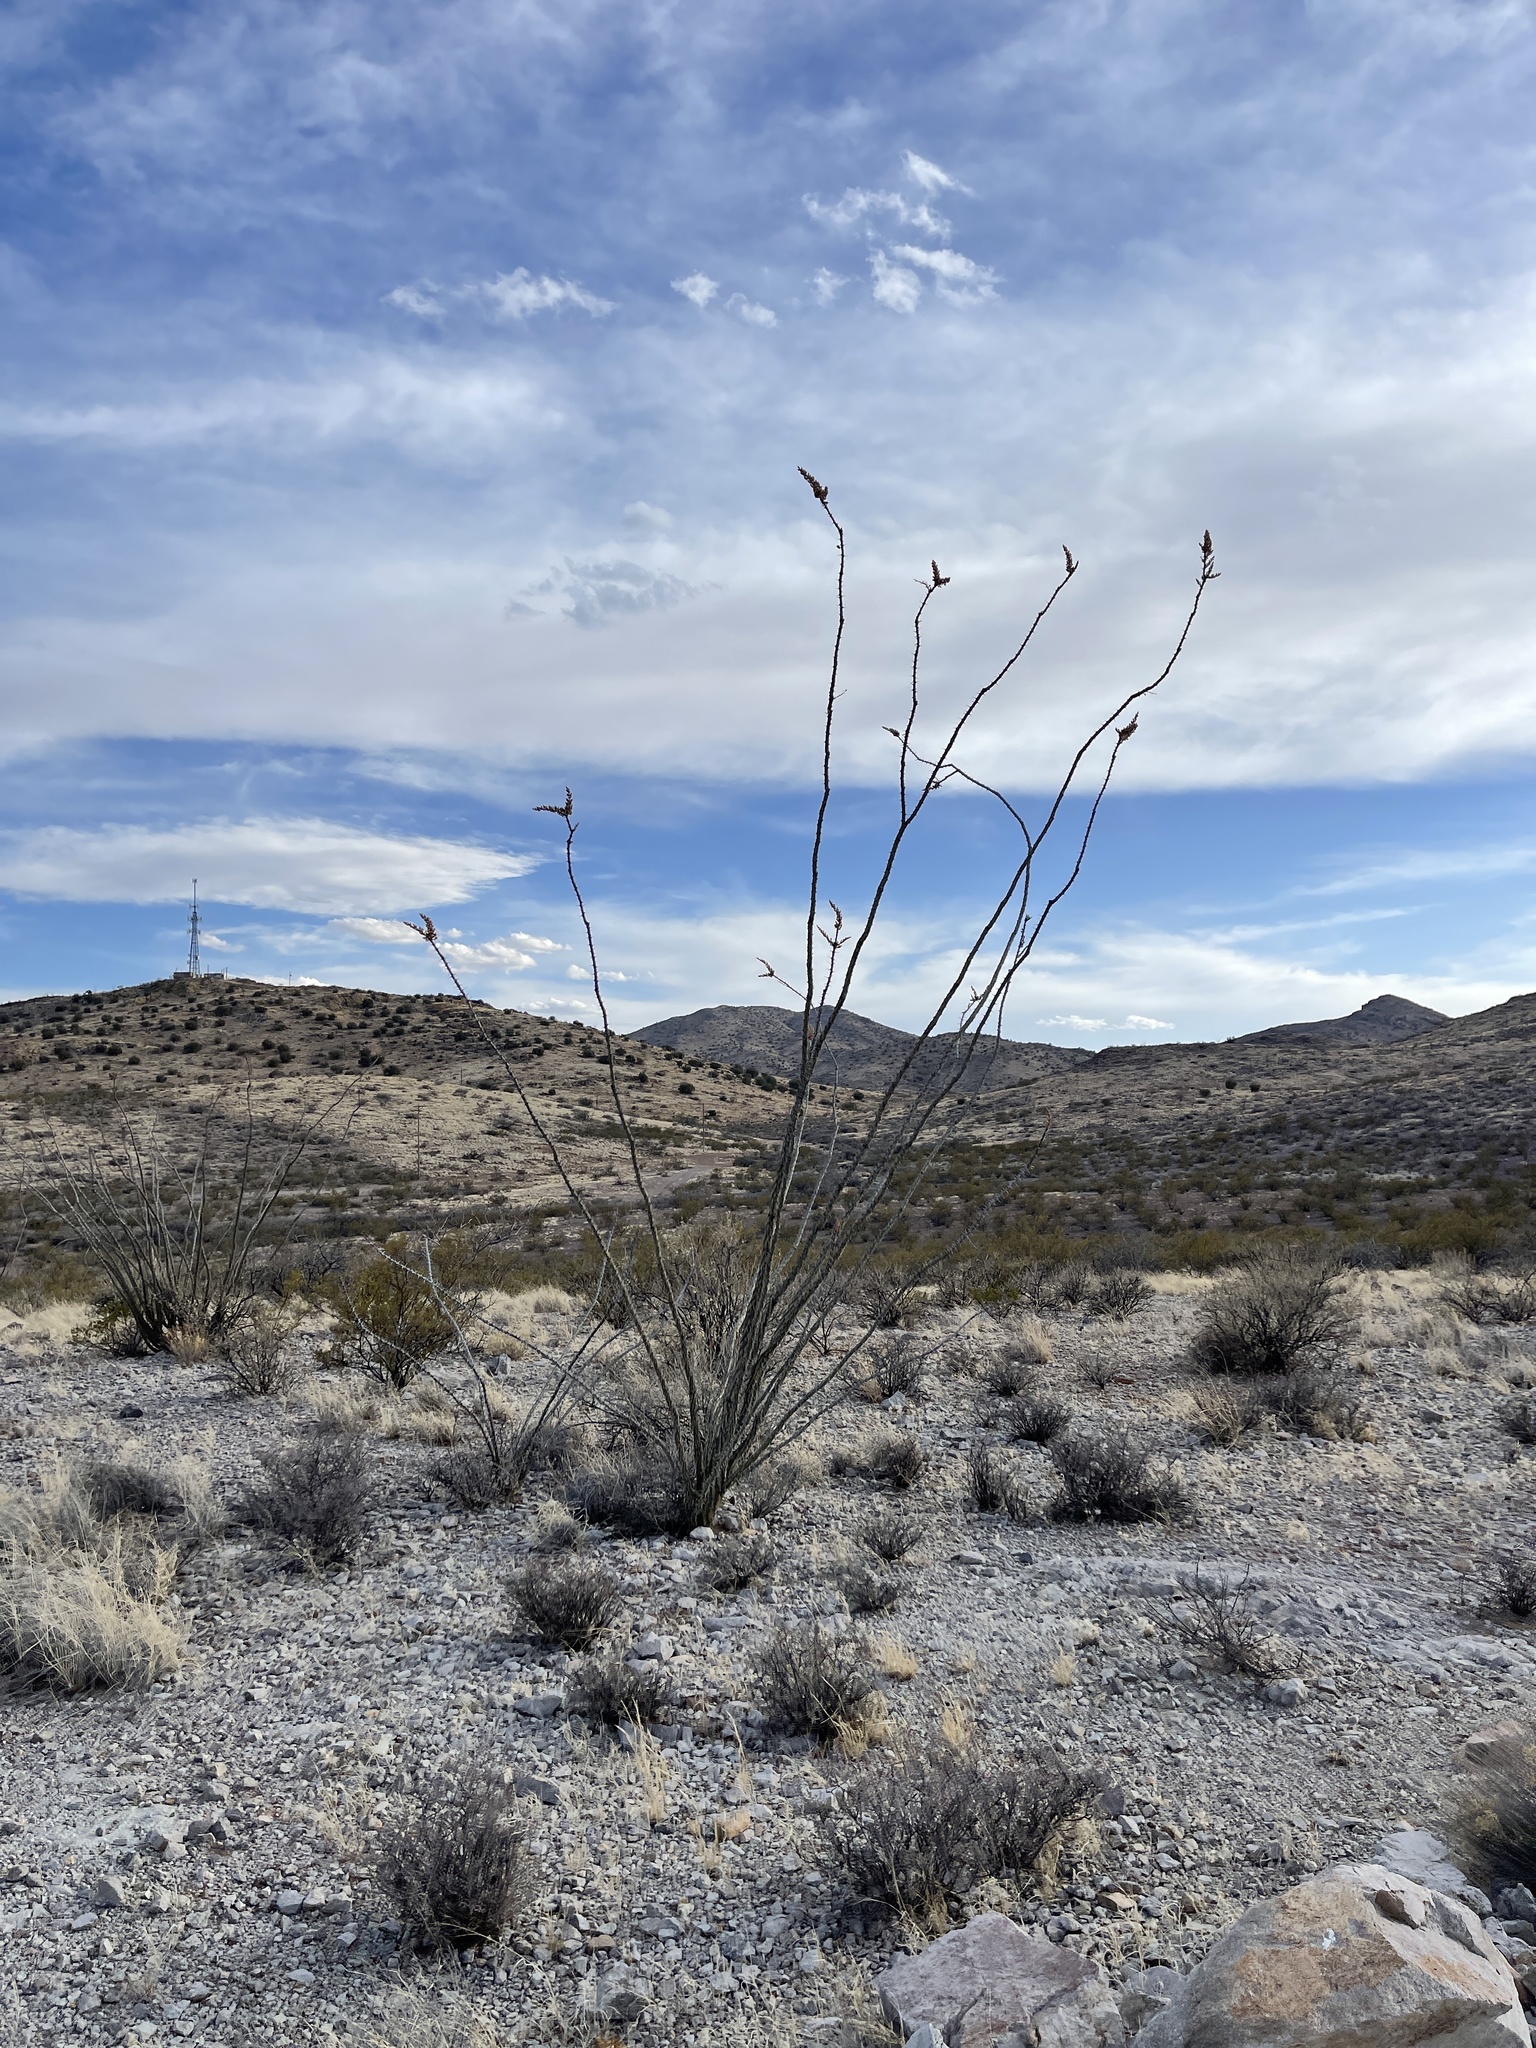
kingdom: Plantae
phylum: Tracheophyta
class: Magnoliopsida
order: Ericales
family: Fouquieriaceae
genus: Fouquieria
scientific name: Fouquieria splendens
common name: Vine-cactus
